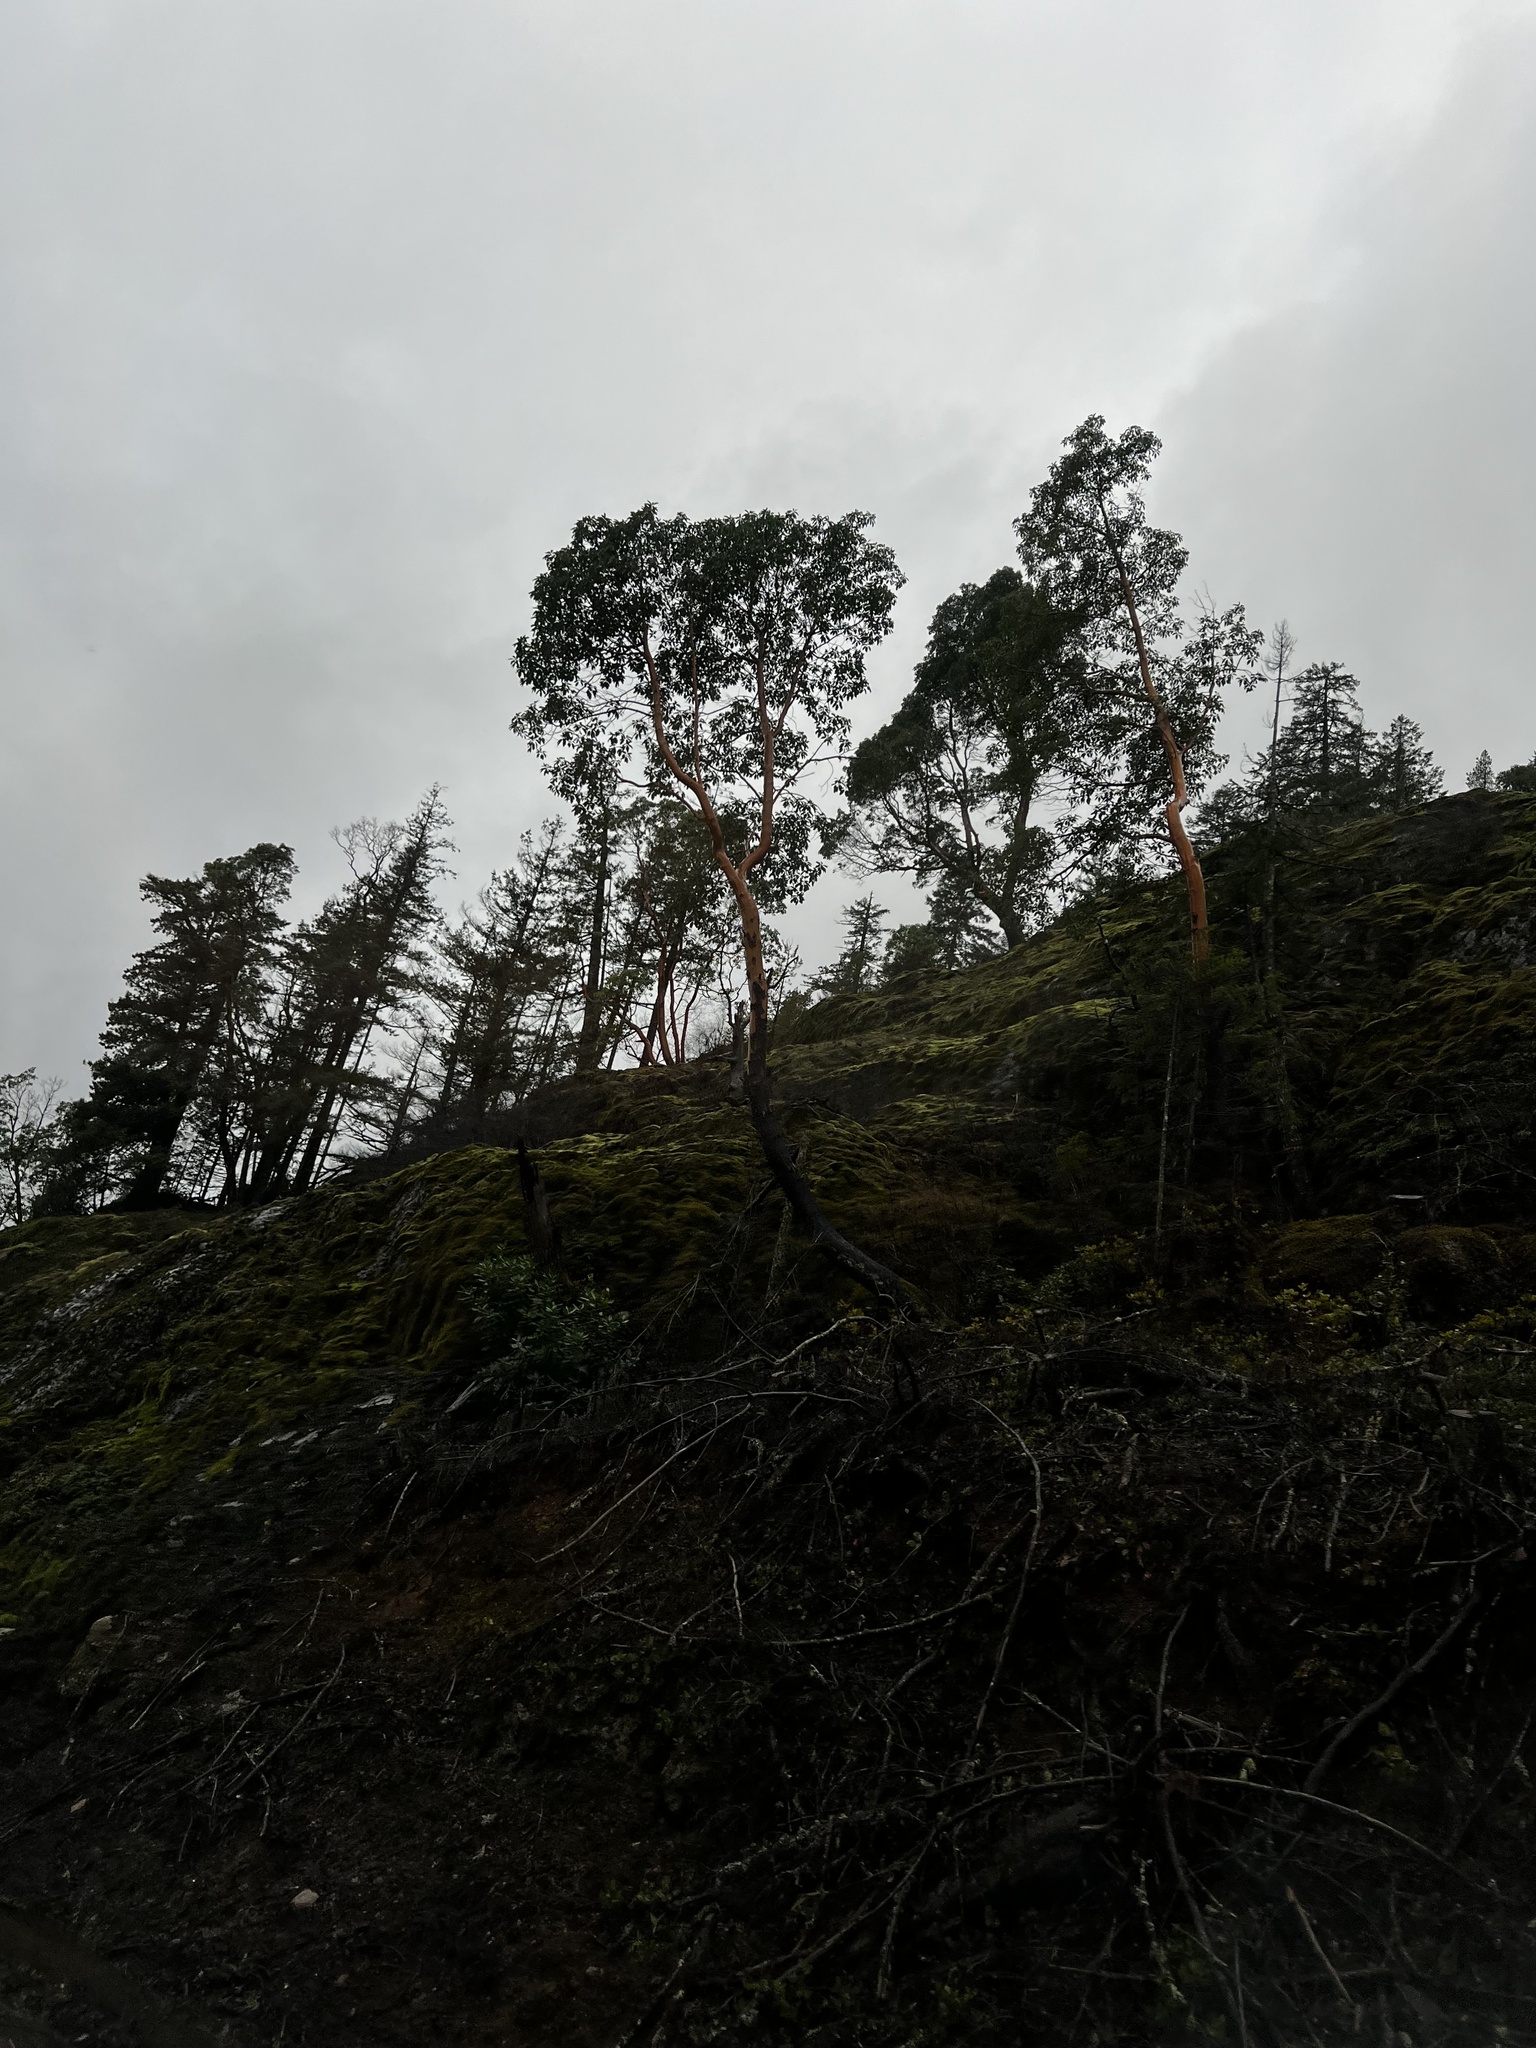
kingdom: Plantae
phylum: Tracheophyta
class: Magnoliopsida
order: Ericales
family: Ericaceae
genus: Arbutus
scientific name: Arbutus menziesii
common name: Pacific madrone
